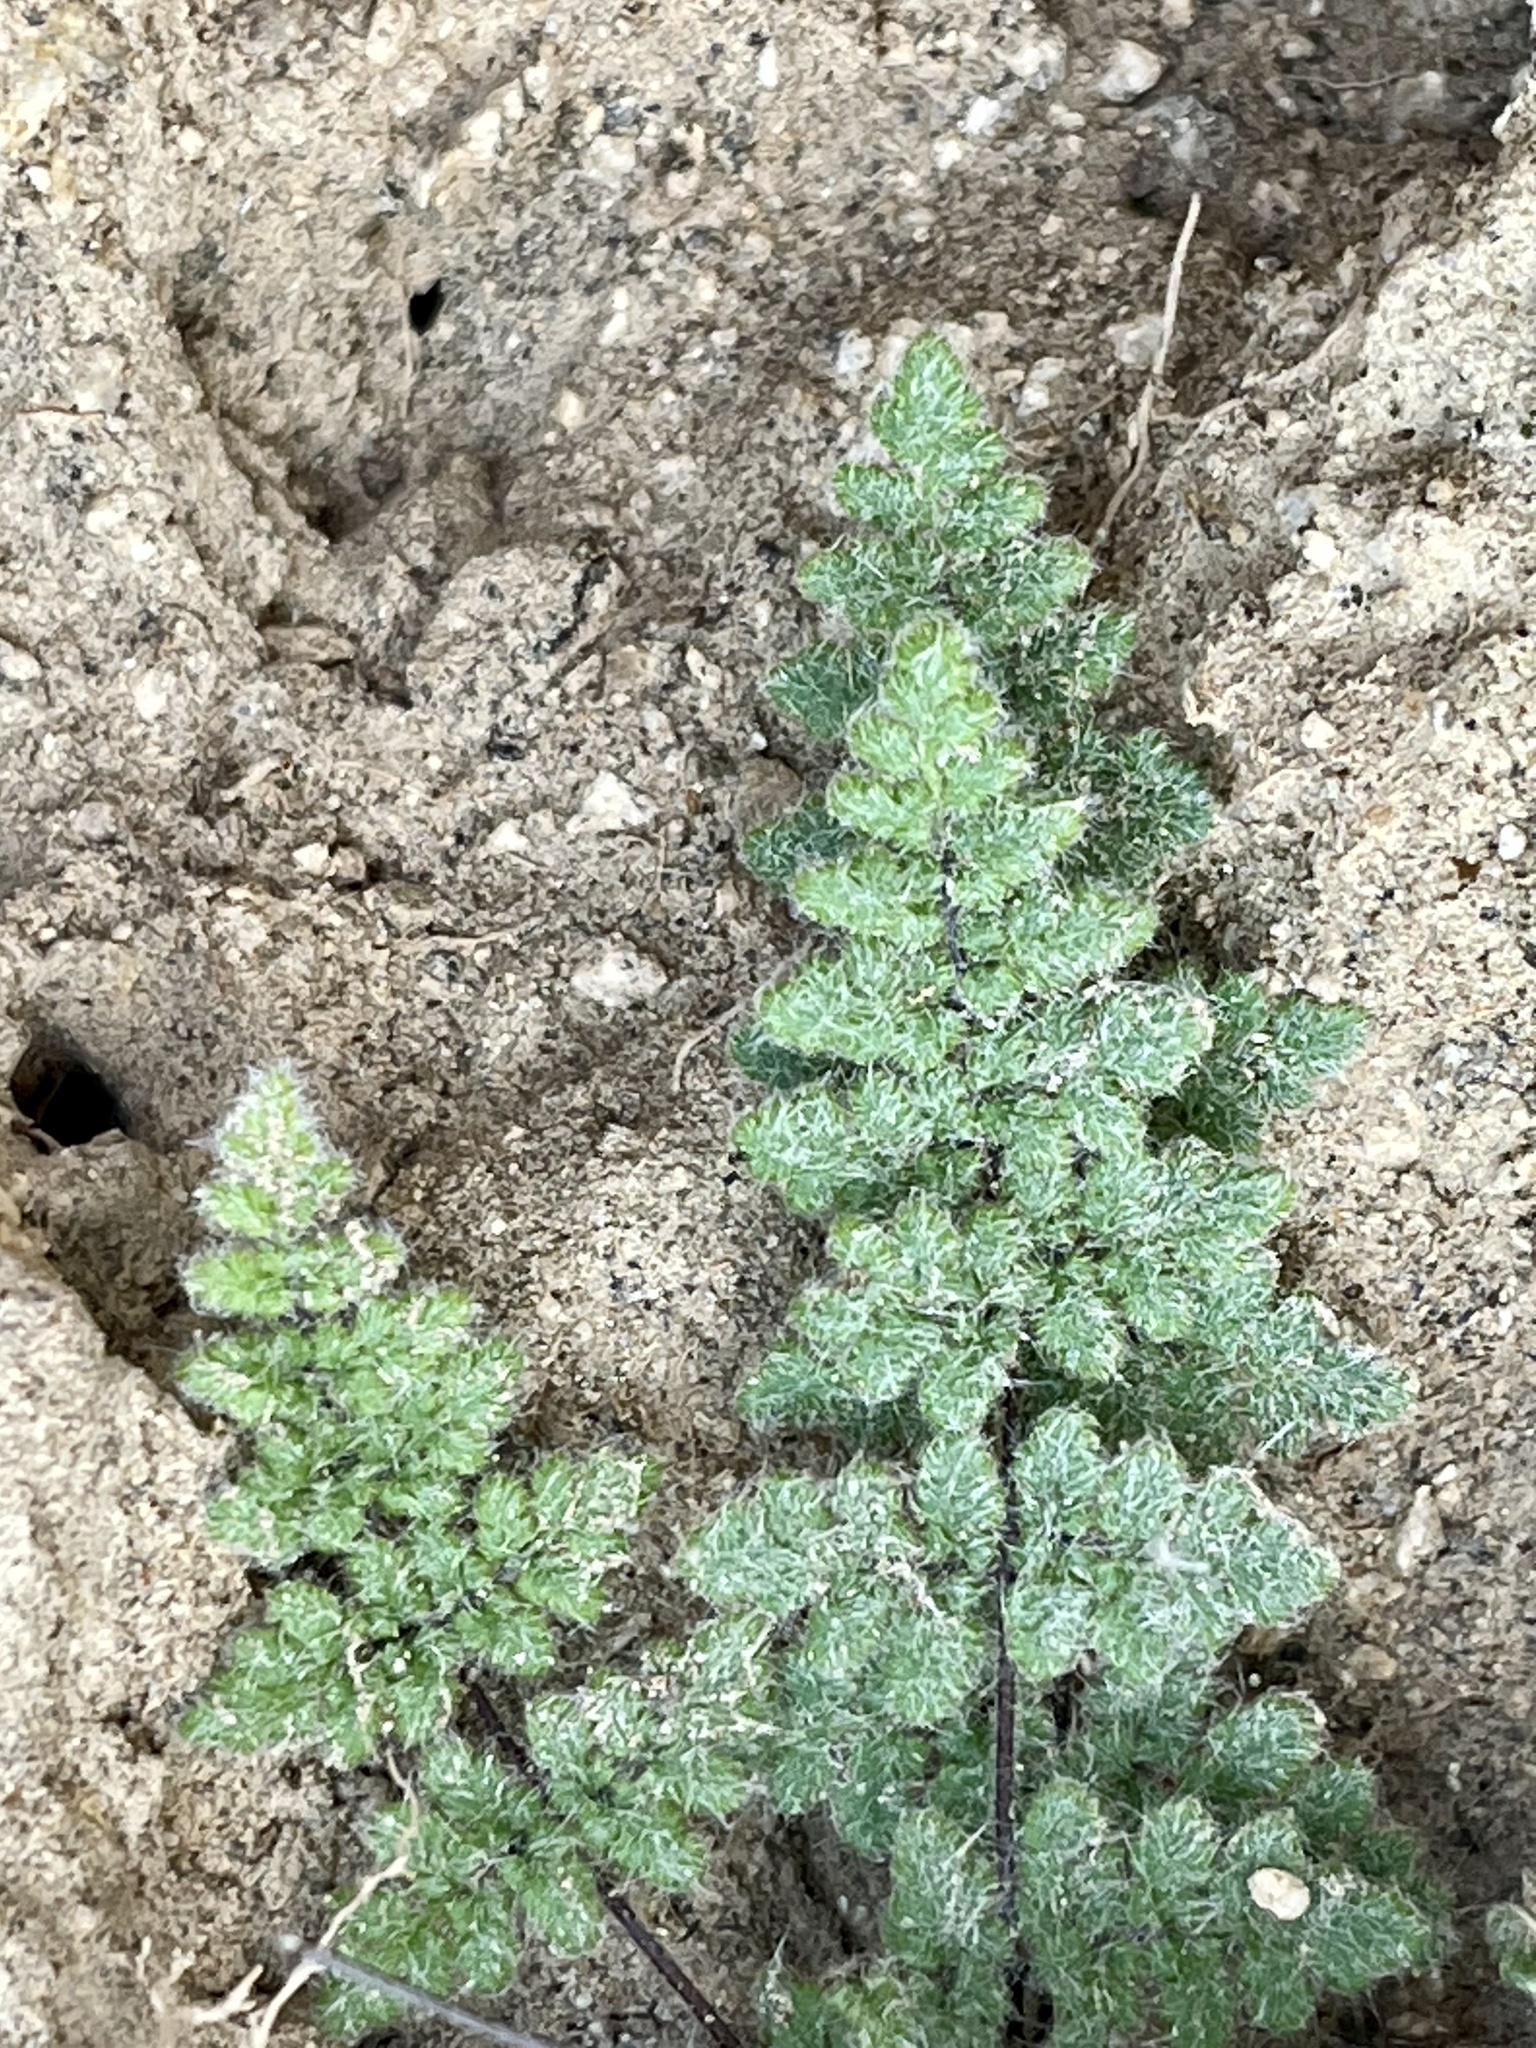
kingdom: Plantae
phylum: Tracheophyta
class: Polypodiopsida
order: Polypodiales
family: Pteridaceae
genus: Myriopteris
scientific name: Myriopteris parryi
